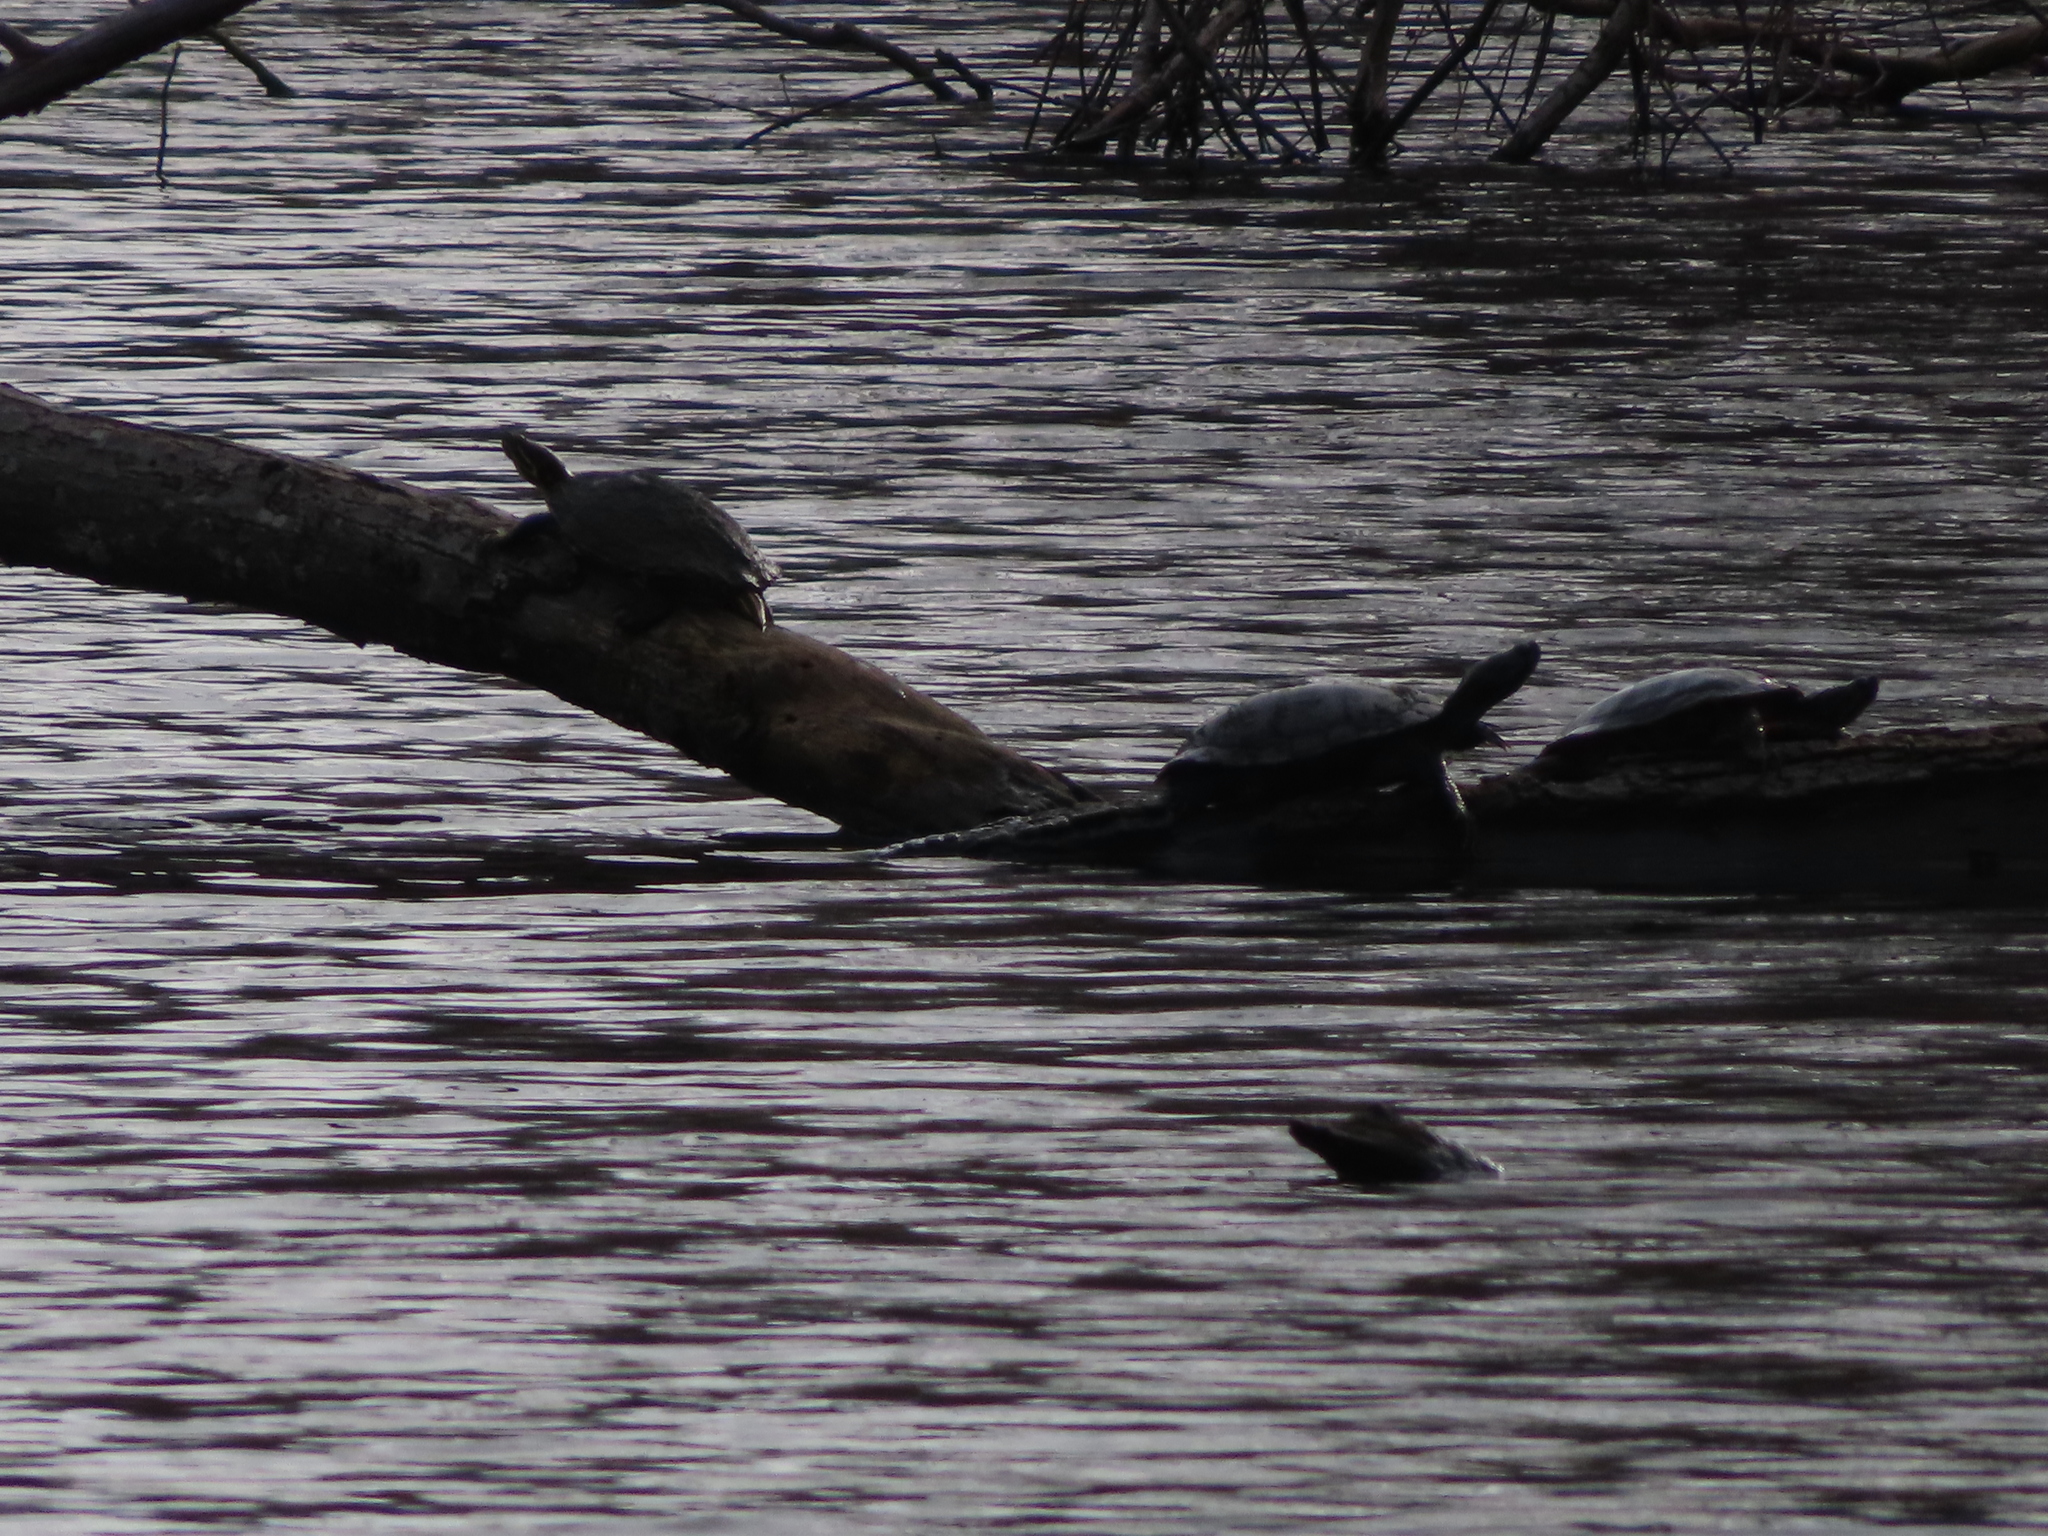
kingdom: Animalia
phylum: Chordata
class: Testudines
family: Emydidae
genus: Trachemys
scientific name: Trachemys scripta
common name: Slider
